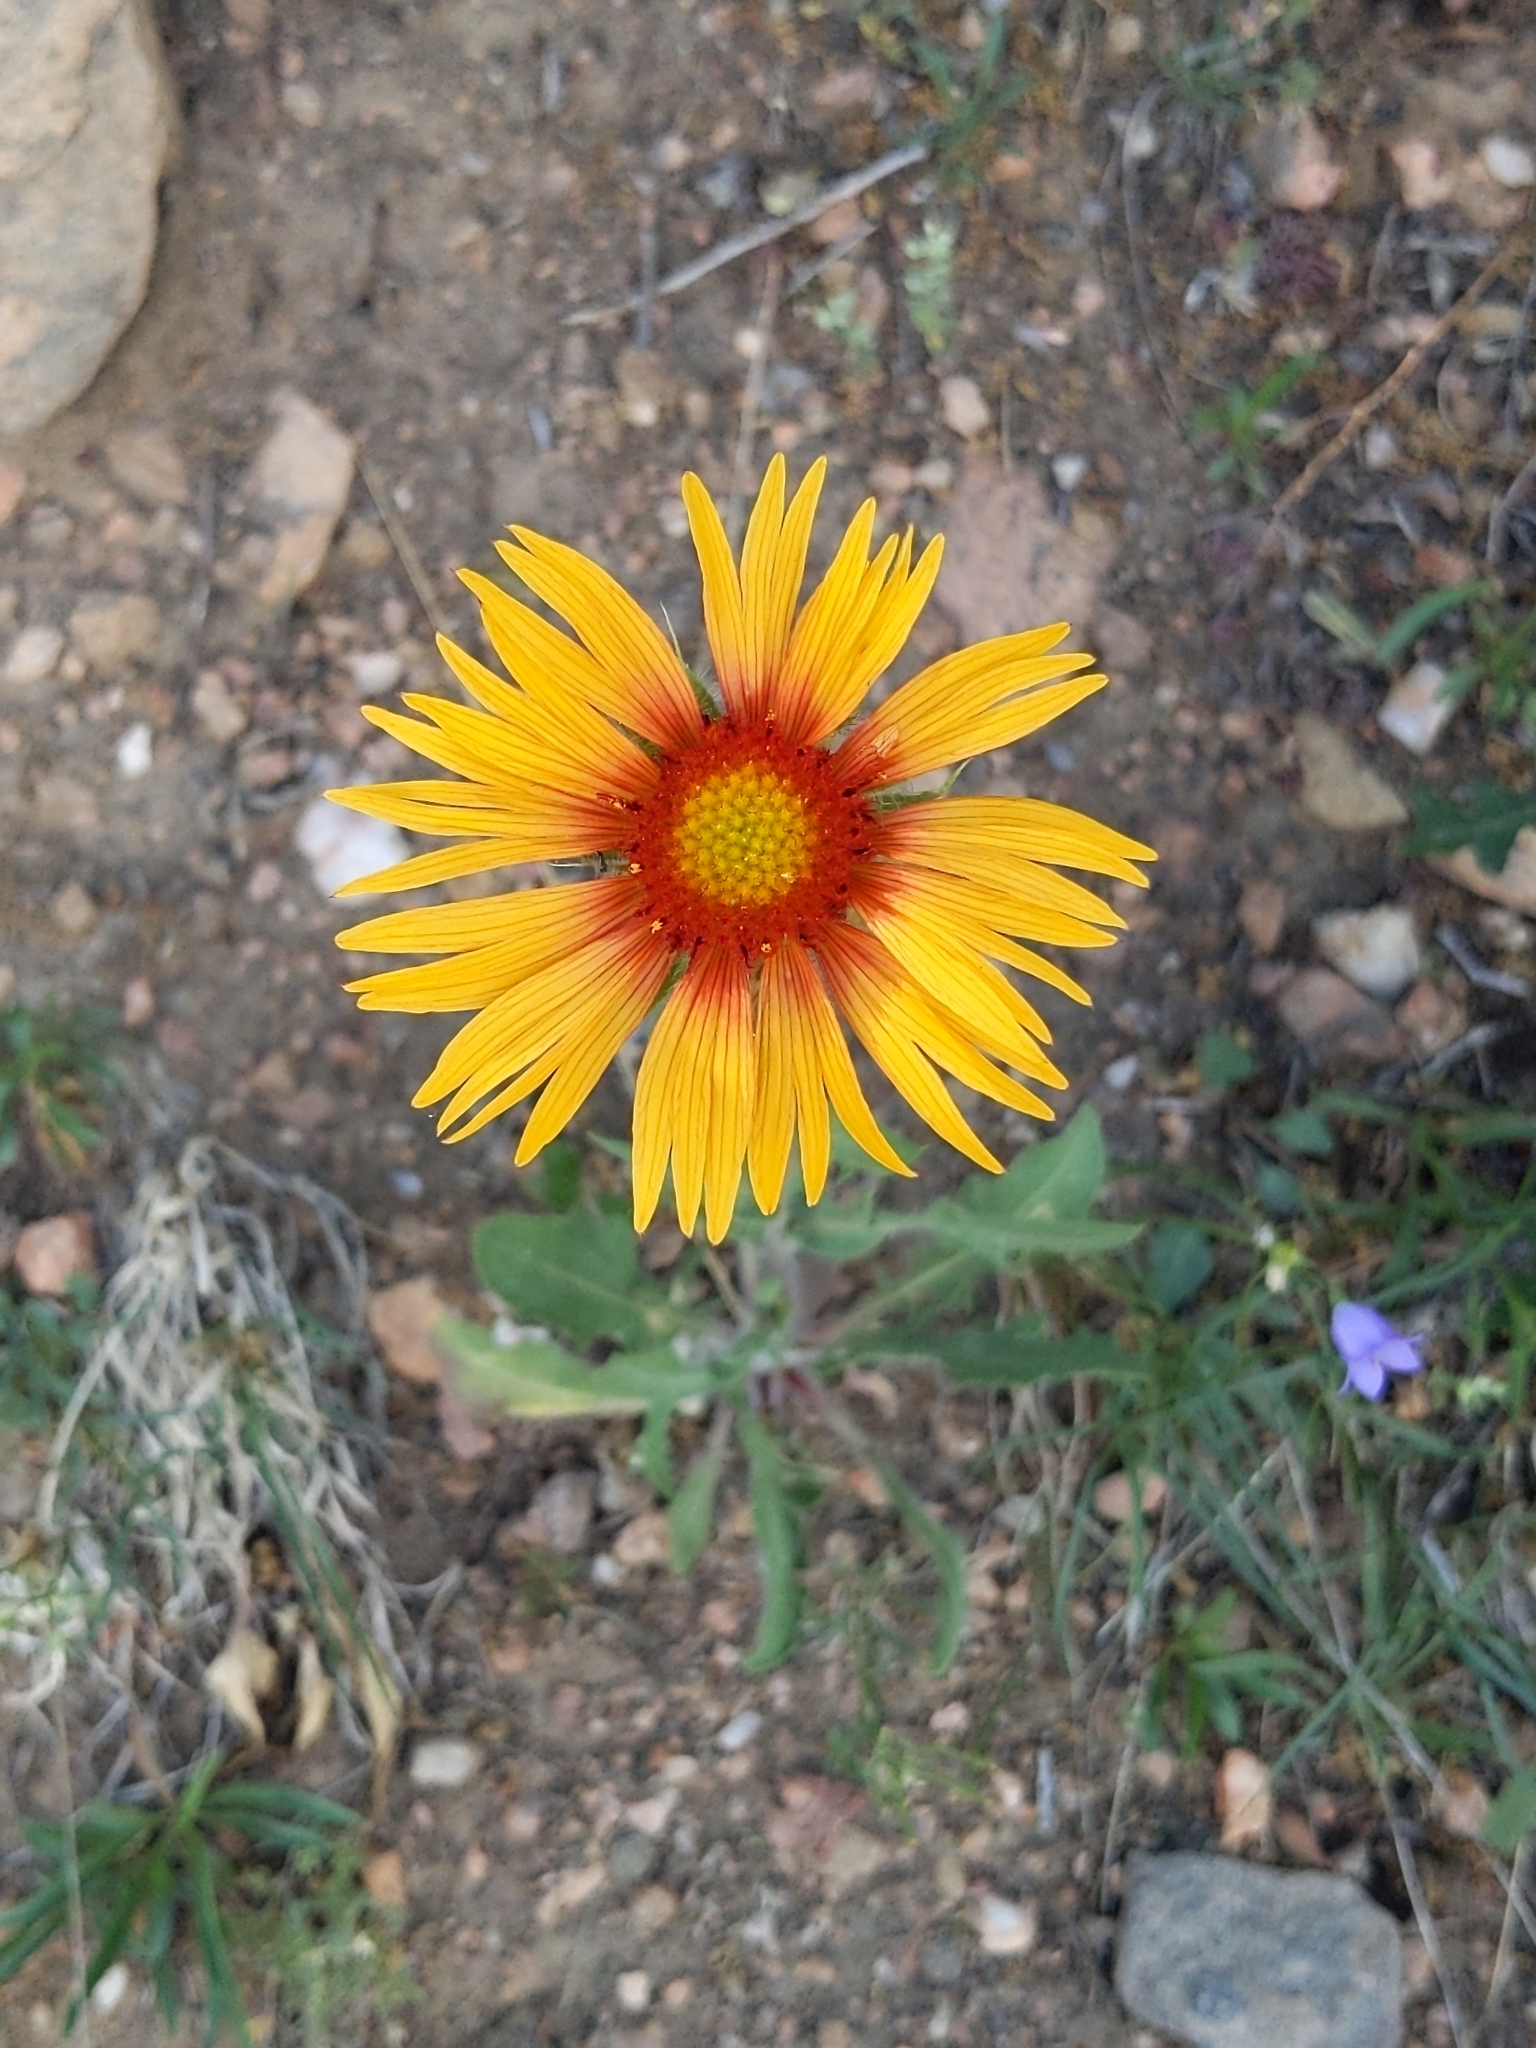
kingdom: Plantae
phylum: Tracheophyta
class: Magnoliopsida
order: Asterales
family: Asteraceae
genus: Gaillardia
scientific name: Gaillardia aristata
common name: Blanket-flower
